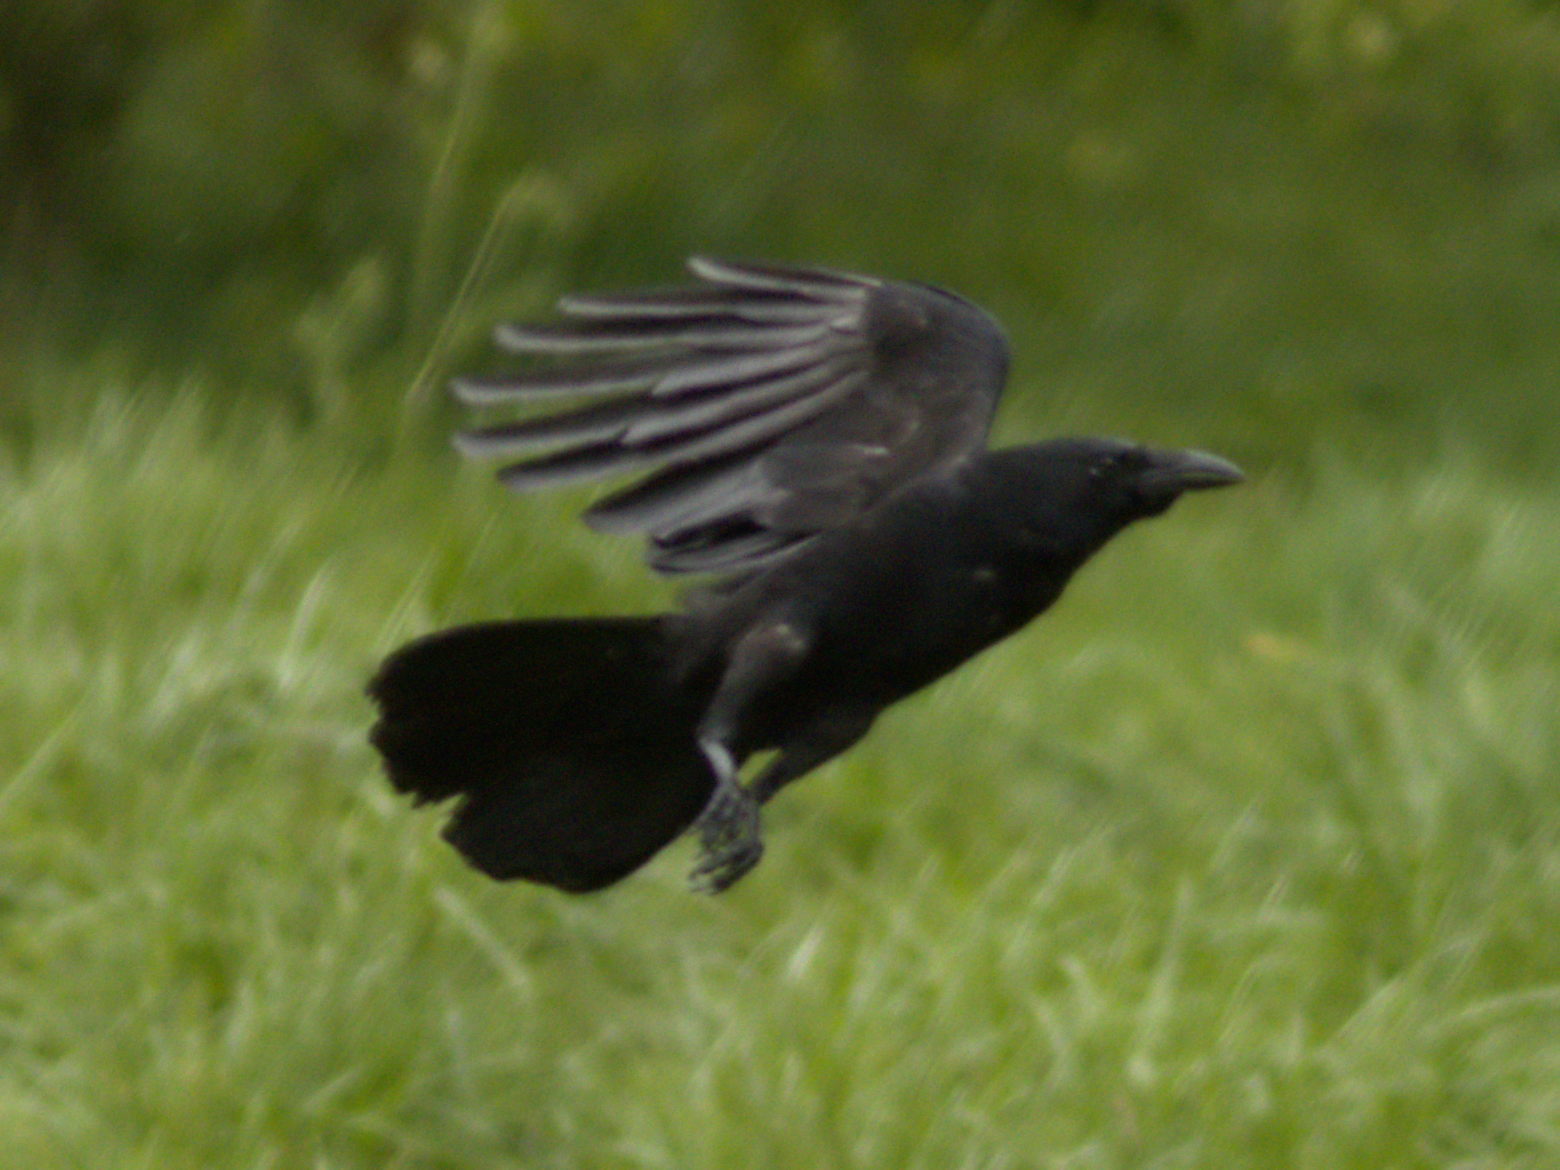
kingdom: Animalia
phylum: Chordata
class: Aves
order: Passeriformes
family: Corvidae
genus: Corvus
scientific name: Corvus corone
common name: Carrion crow
